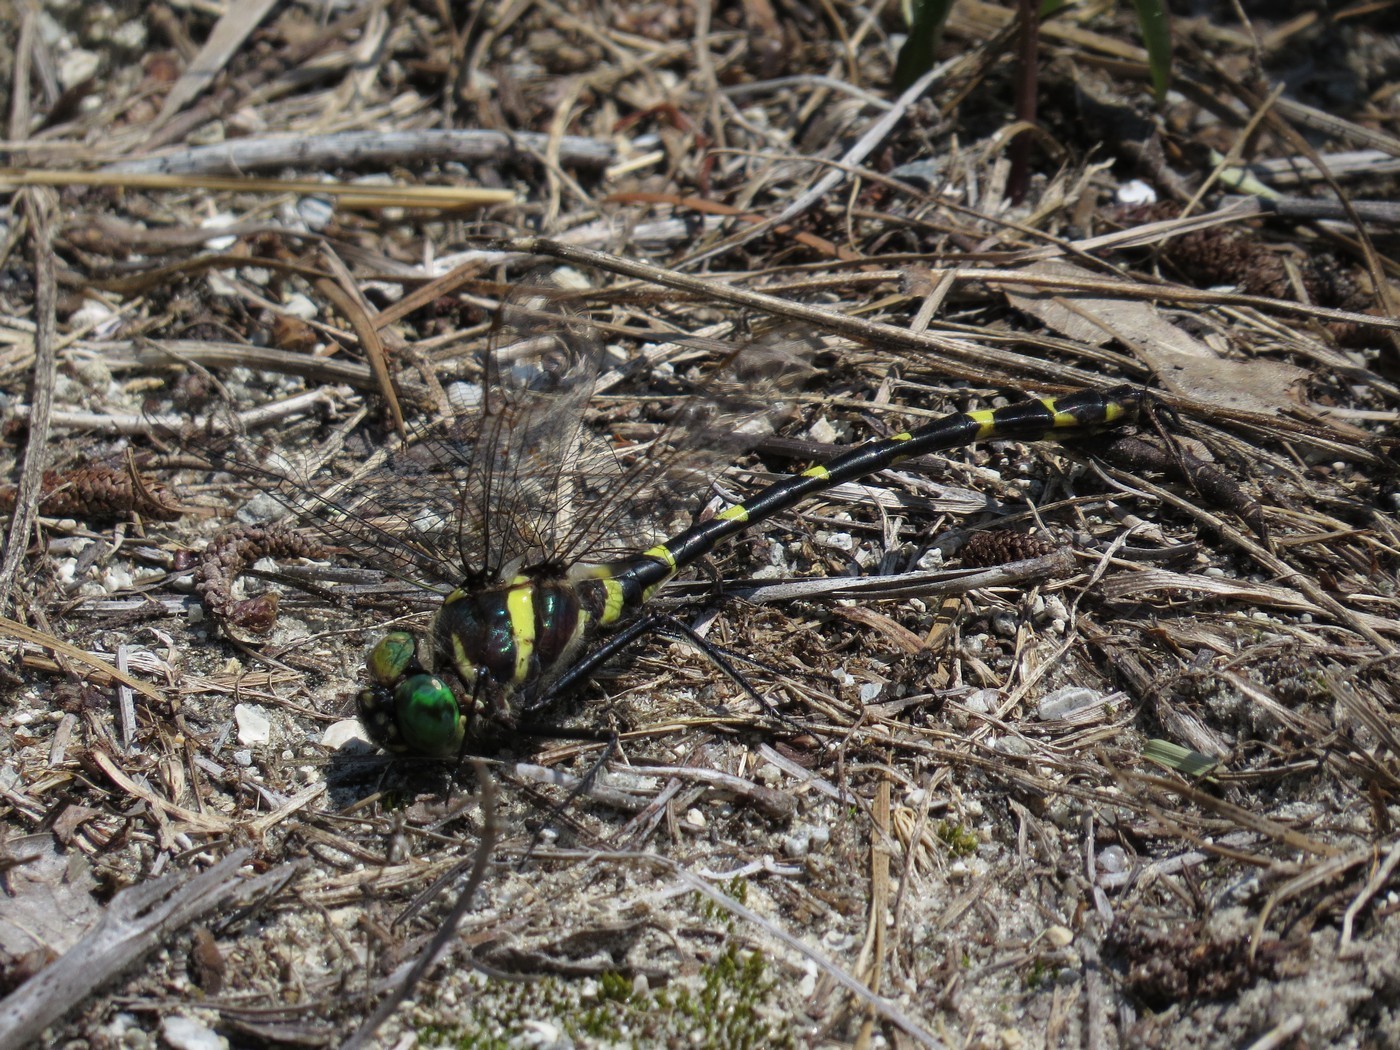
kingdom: Animalia
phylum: Arthropoda
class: Insecta
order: Odonata
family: Macromiidae
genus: Macromia
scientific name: Macromia illinoiensis
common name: Swift river cruiser
